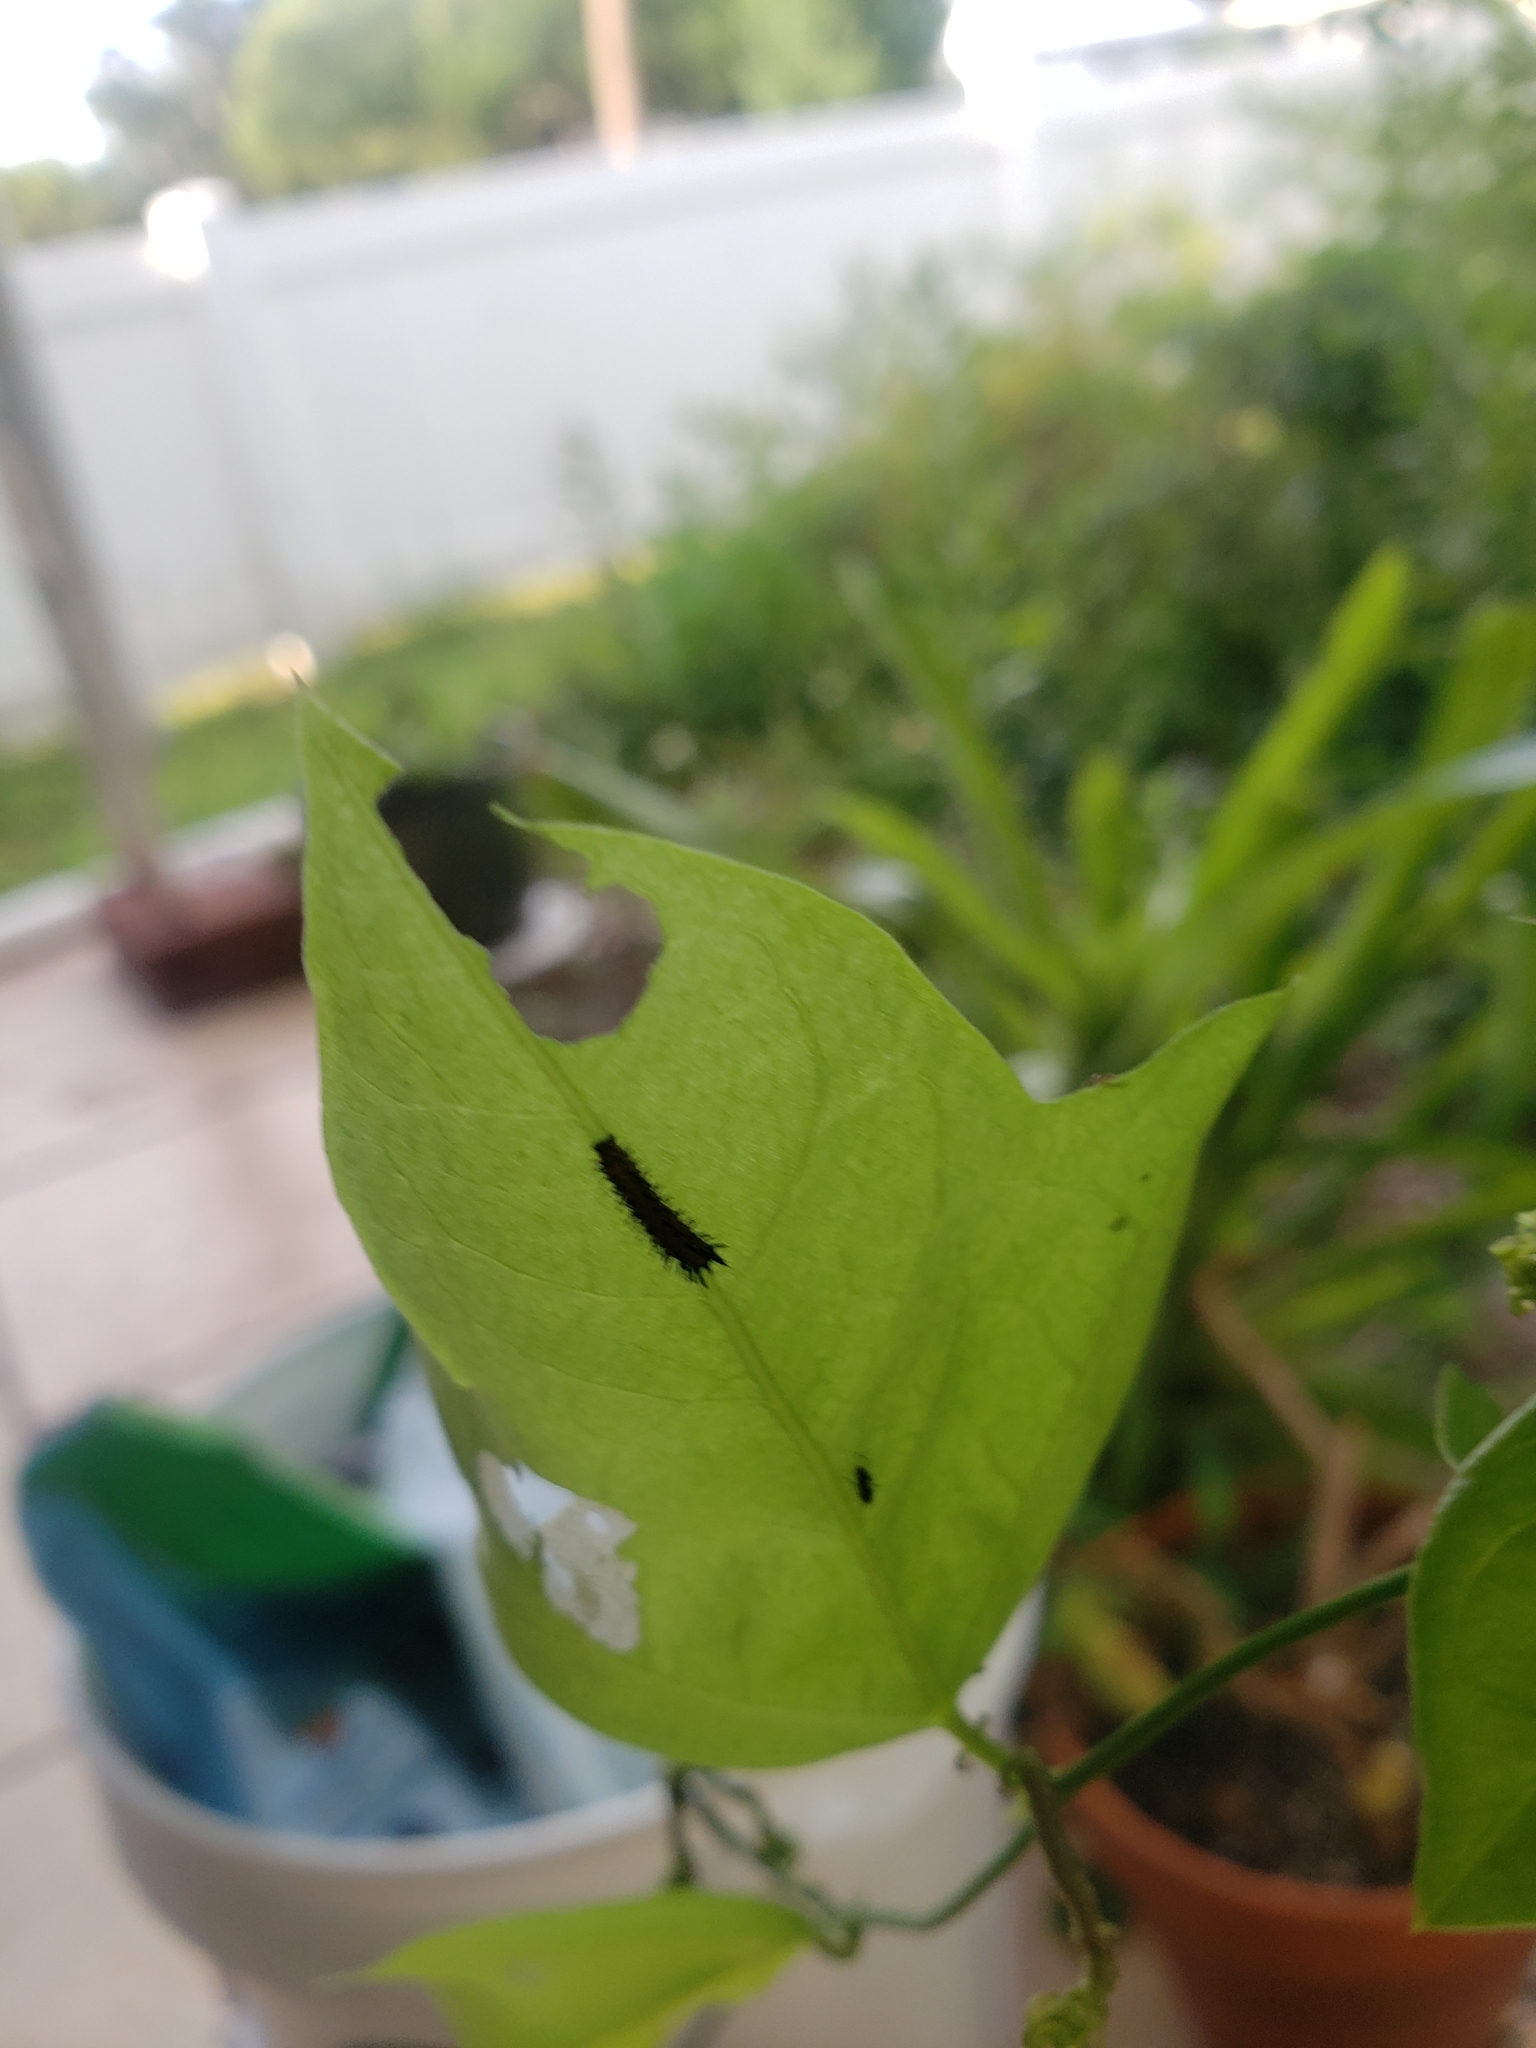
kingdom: Animalia
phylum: Arthropoda
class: Insecta
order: Lepidoptera
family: Nymphalidae
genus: Dione
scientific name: Dione vanillae
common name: Gulf fritillary
